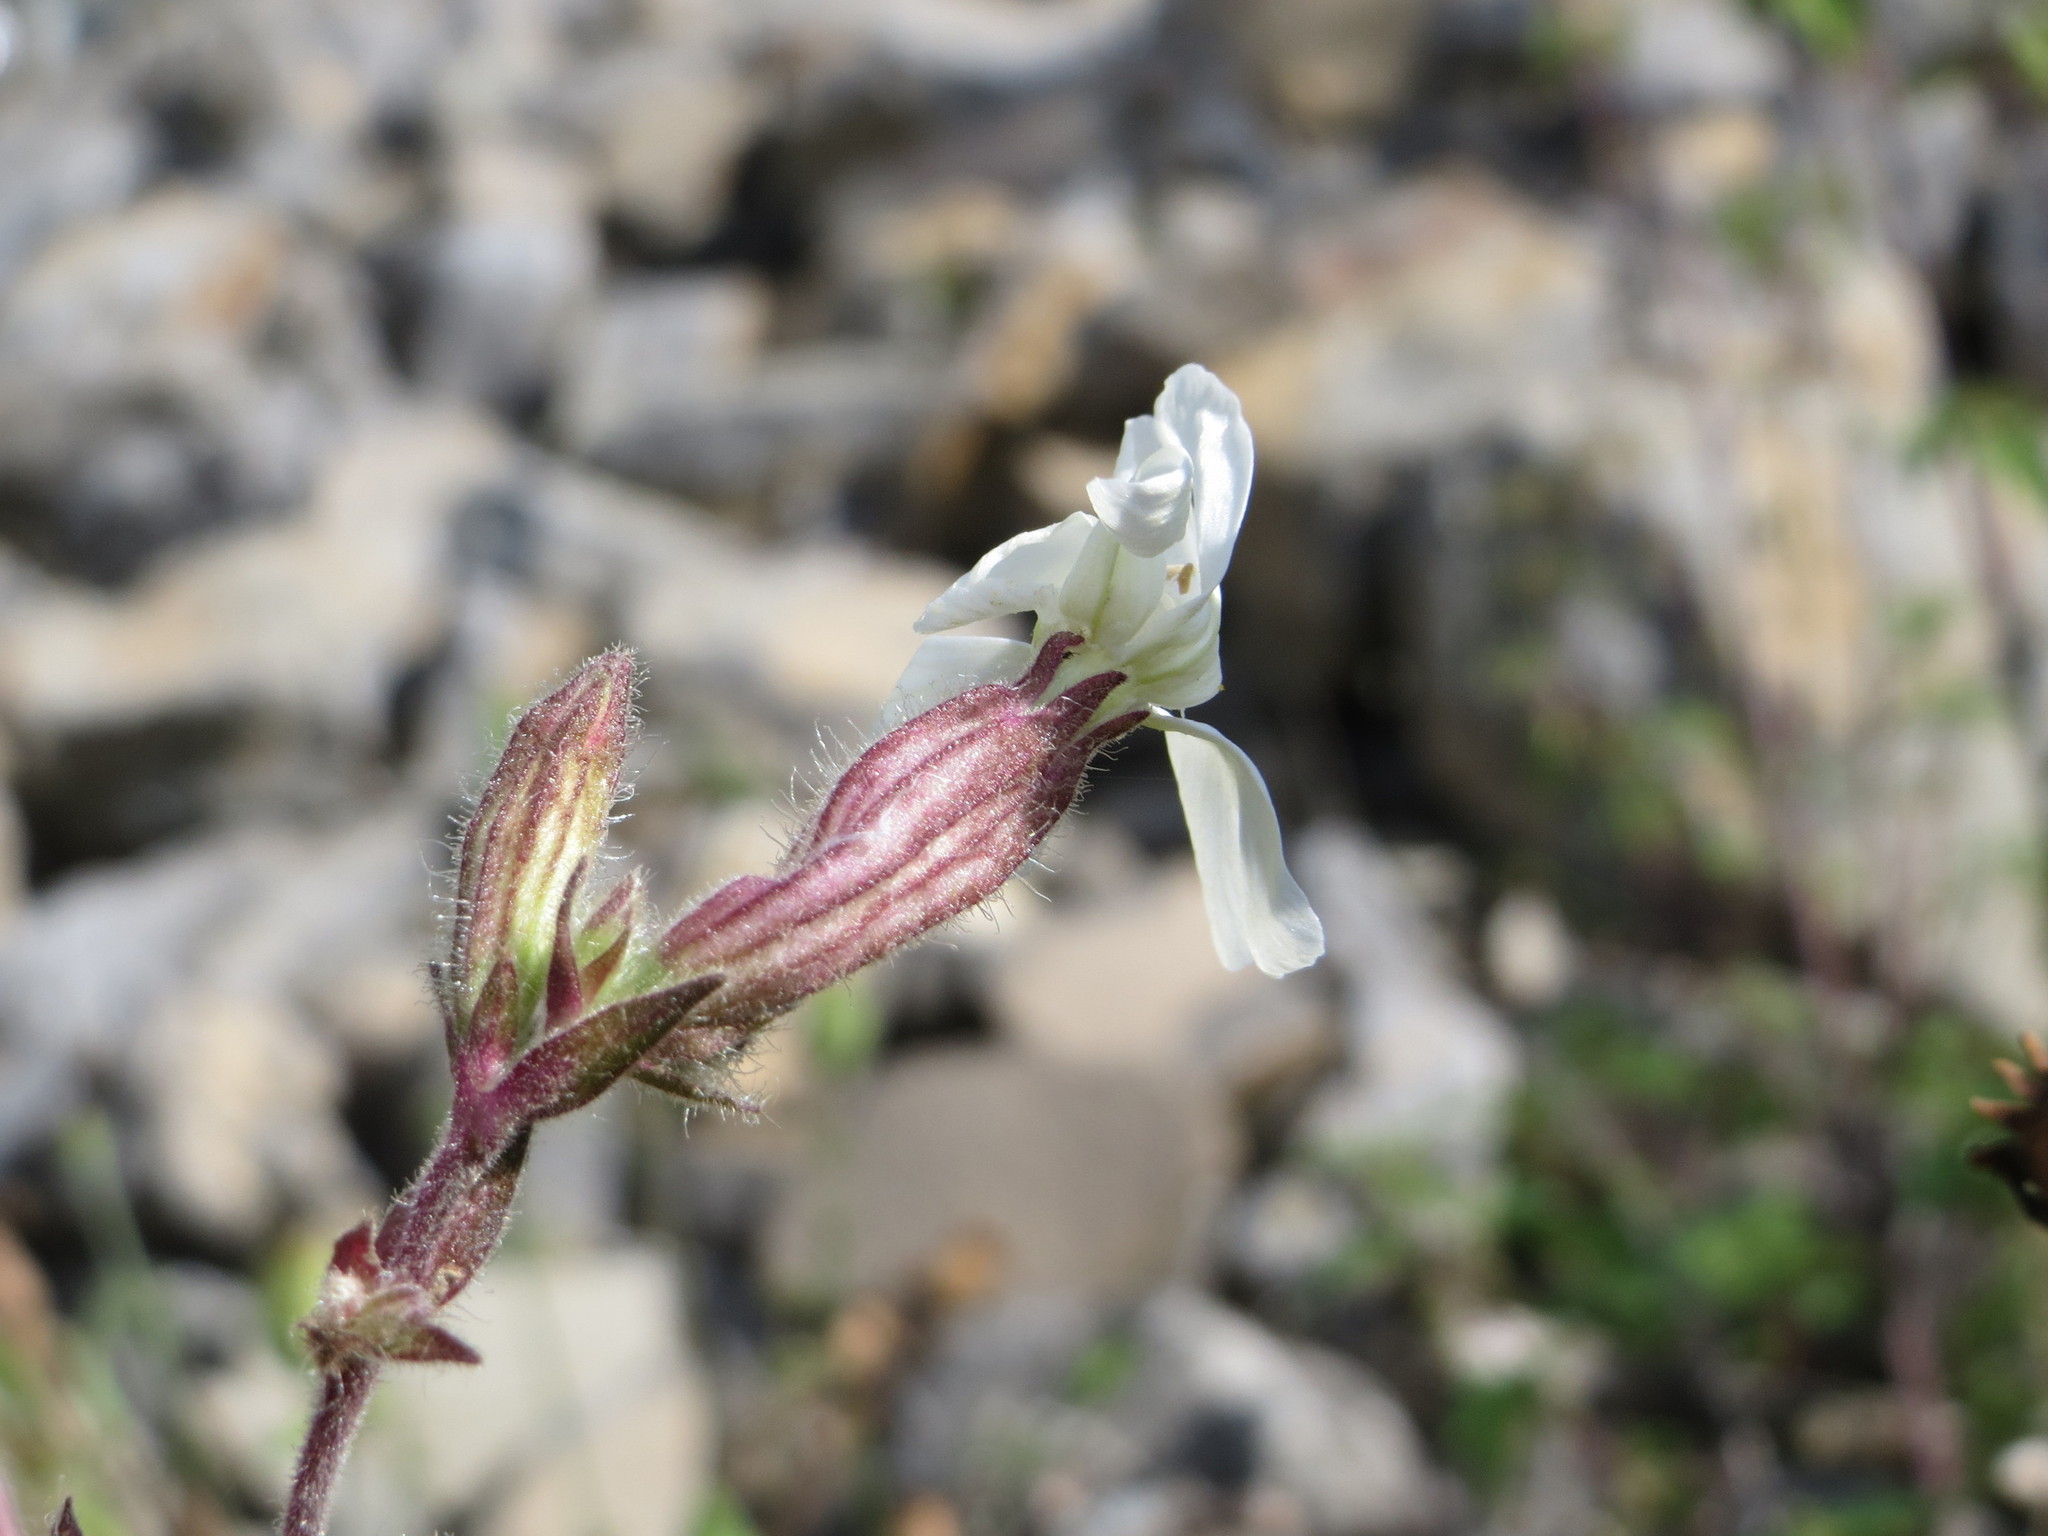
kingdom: Plantae
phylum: Tracheophyta
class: Magnoliopsida
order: Caryophyllales
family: Caryophyllaceae
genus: Silene
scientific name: Silene latifolia
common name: White campion
